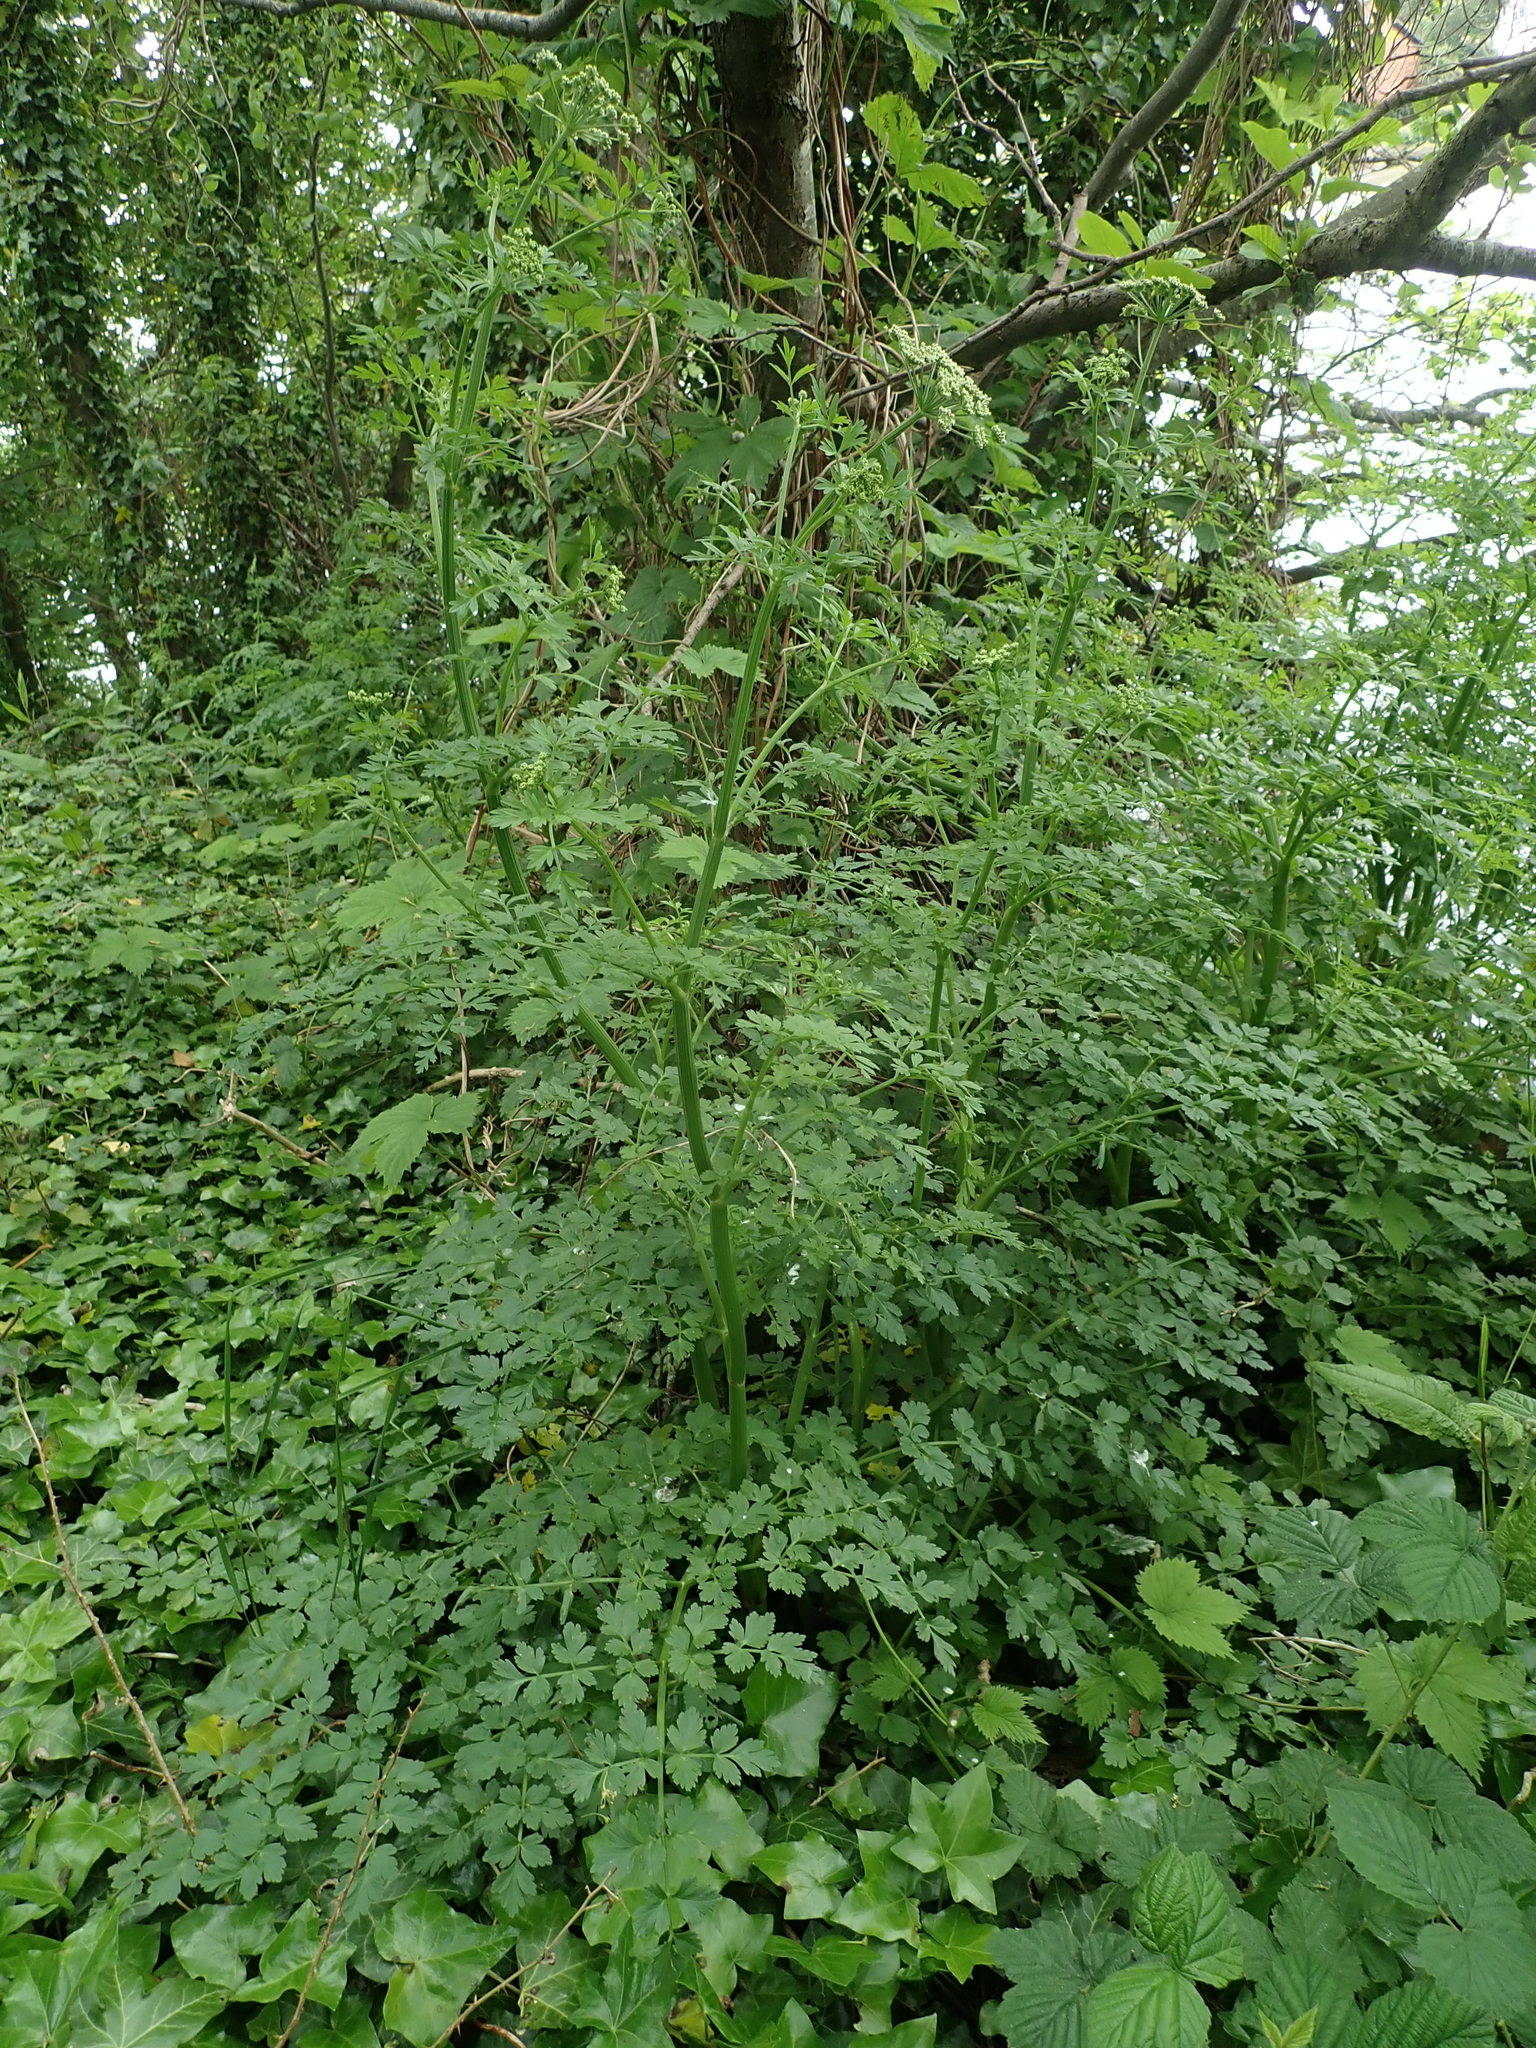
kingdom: Plantae
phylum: Tracheophyta
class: Magnoliopsida
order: Apiales
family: Apiaceae
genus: Oenanthe
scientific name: Oenanthe crocata
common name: Hemlock water-dropwort
